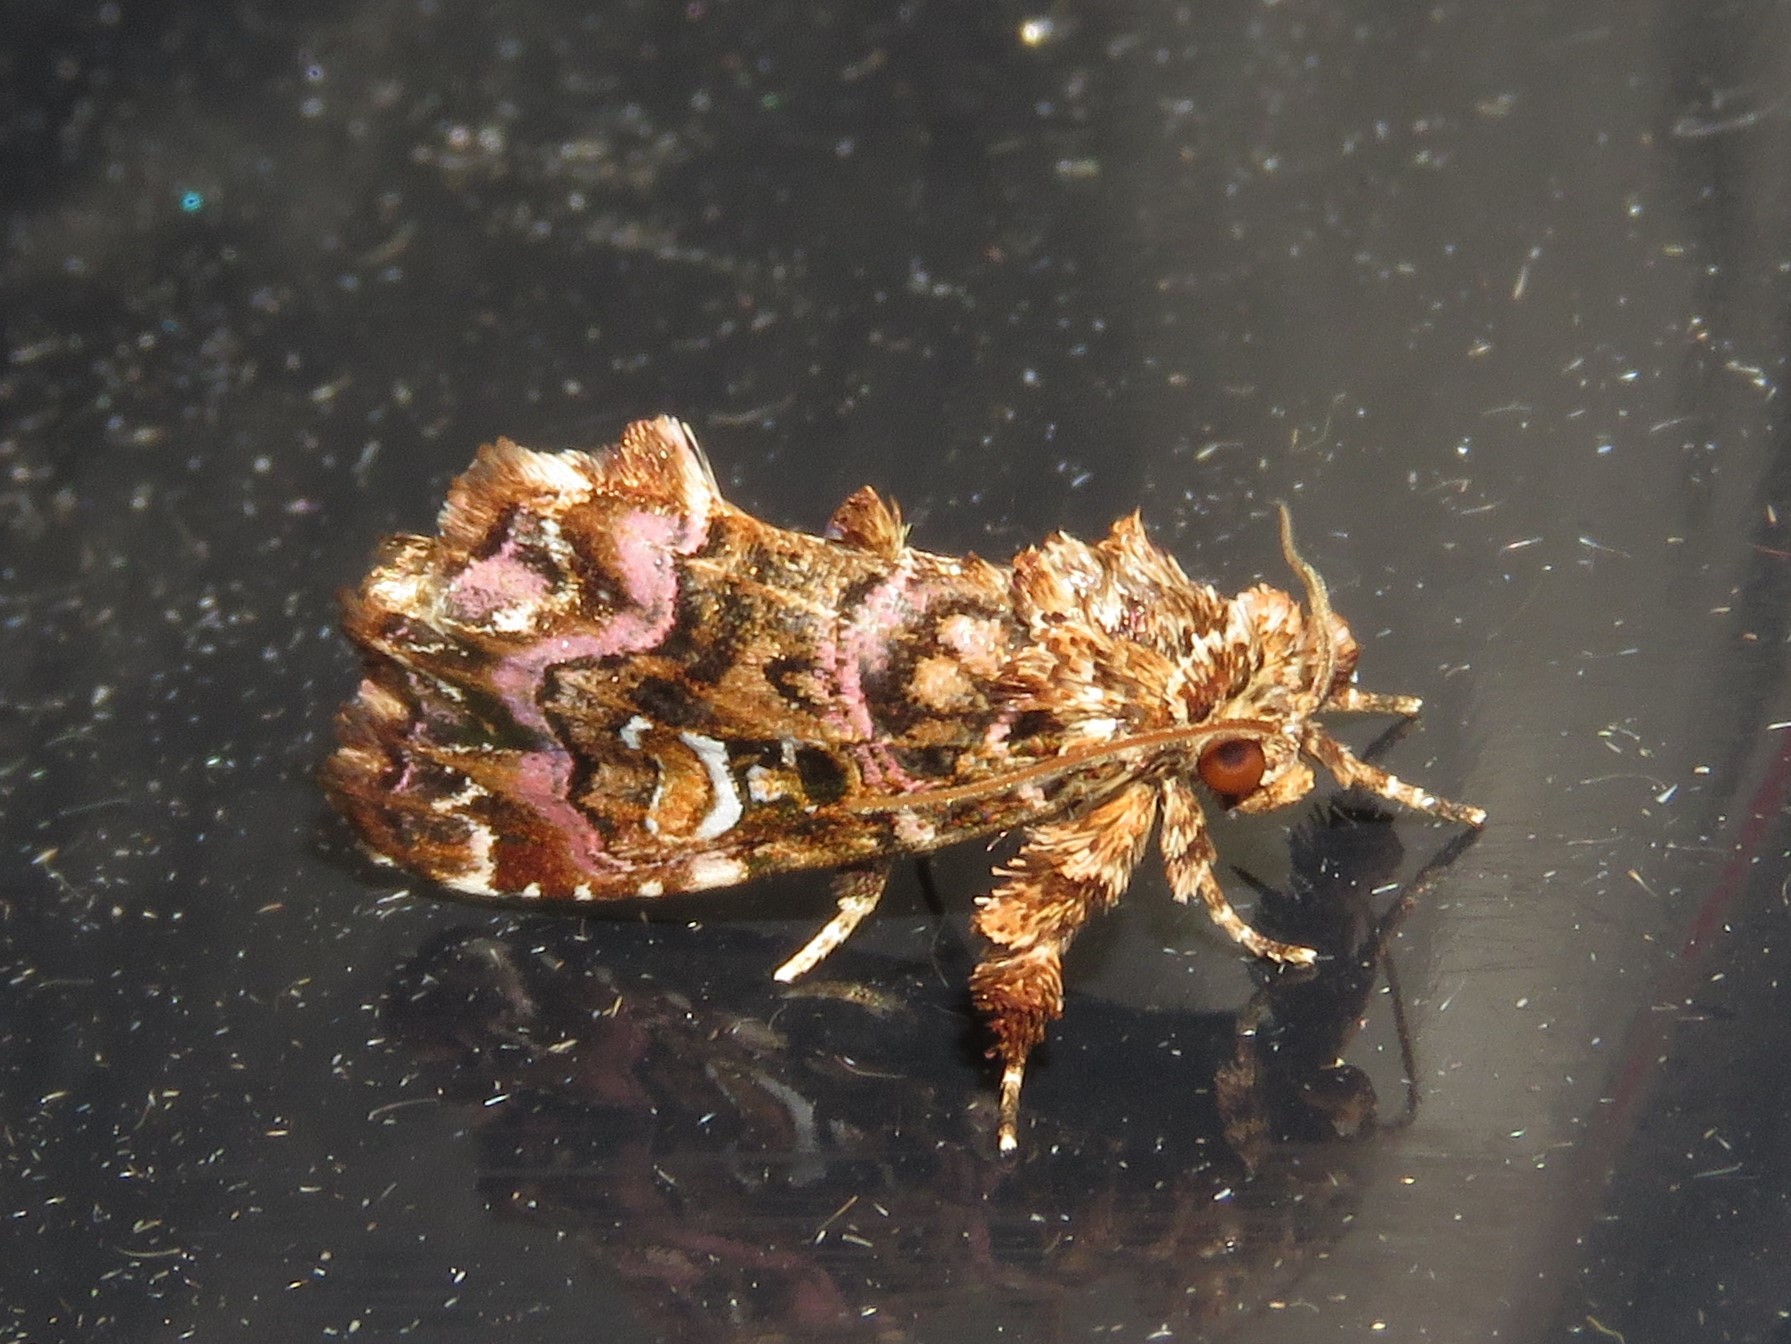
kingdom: Animalia
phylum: Arthropoda
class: Insecta
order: Lepidoptera
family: Noctuidae
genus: Callopistria
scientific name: Callopistria mollissima
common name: Pink-shaded fern moth
